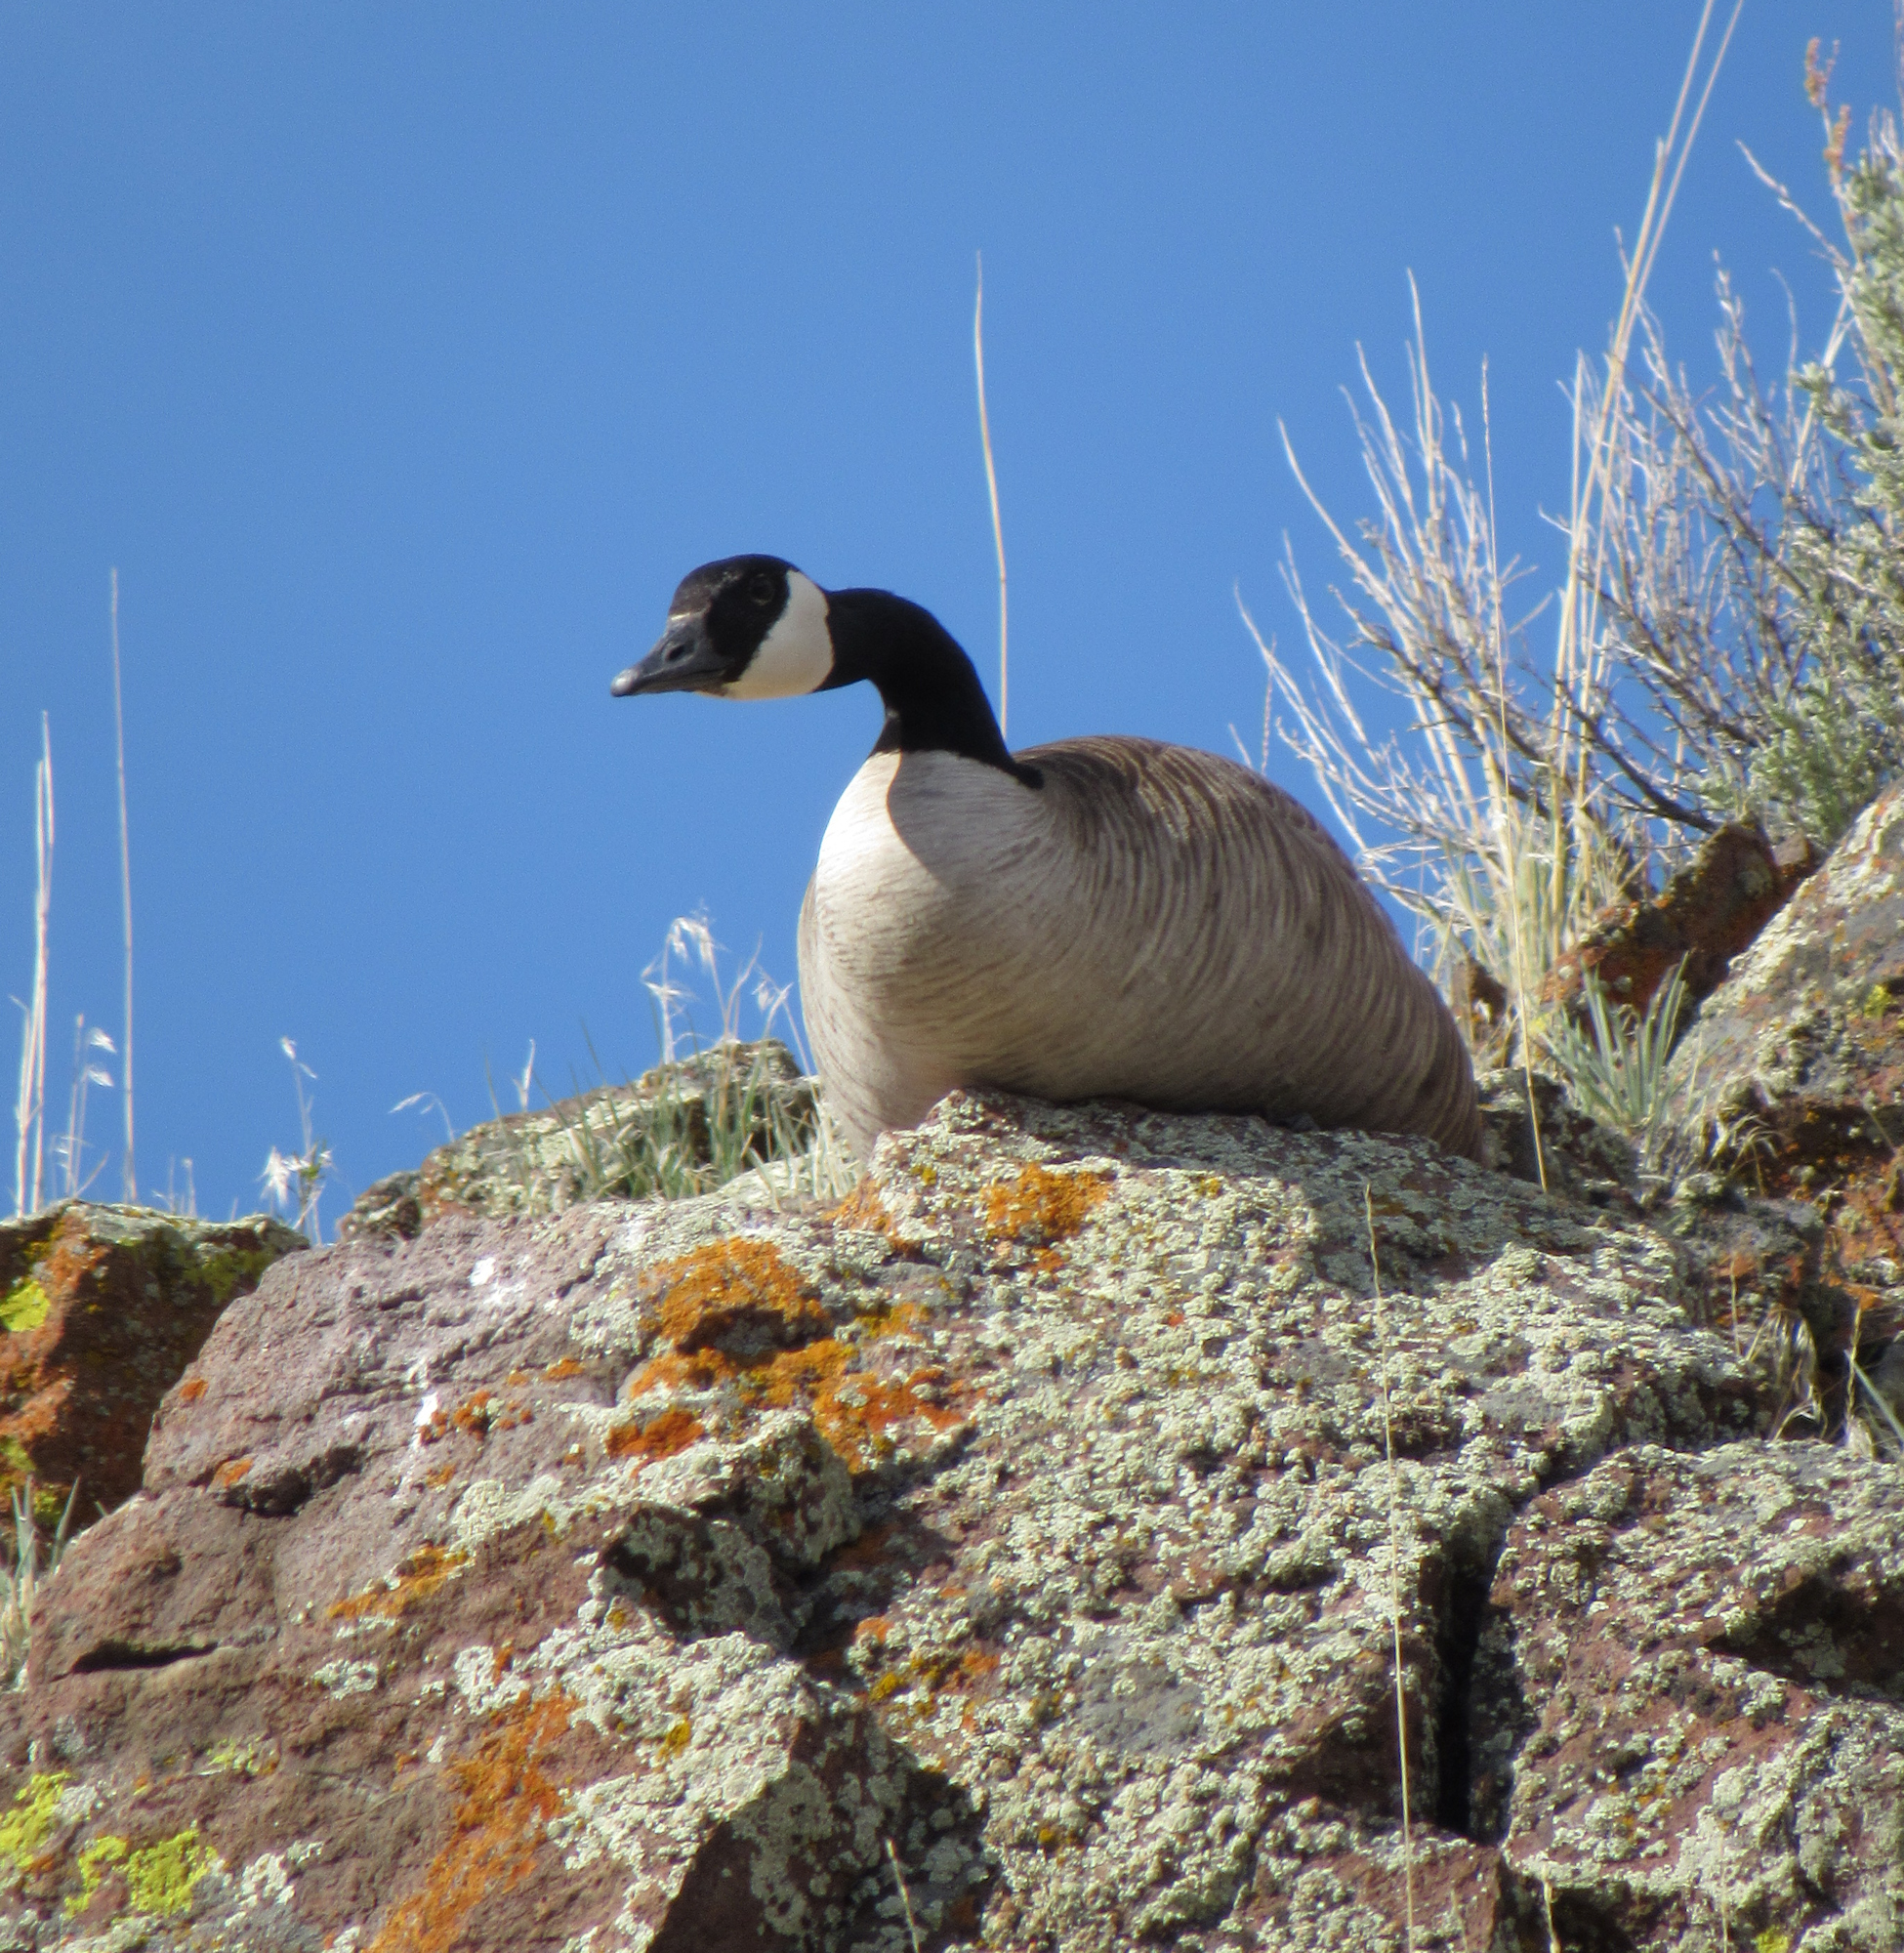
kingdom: Animalia
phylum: Chordata
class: Aves
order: Anseriformes
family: Anatidae
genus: Branta
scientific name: Branta canadensis
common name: Canada goose
